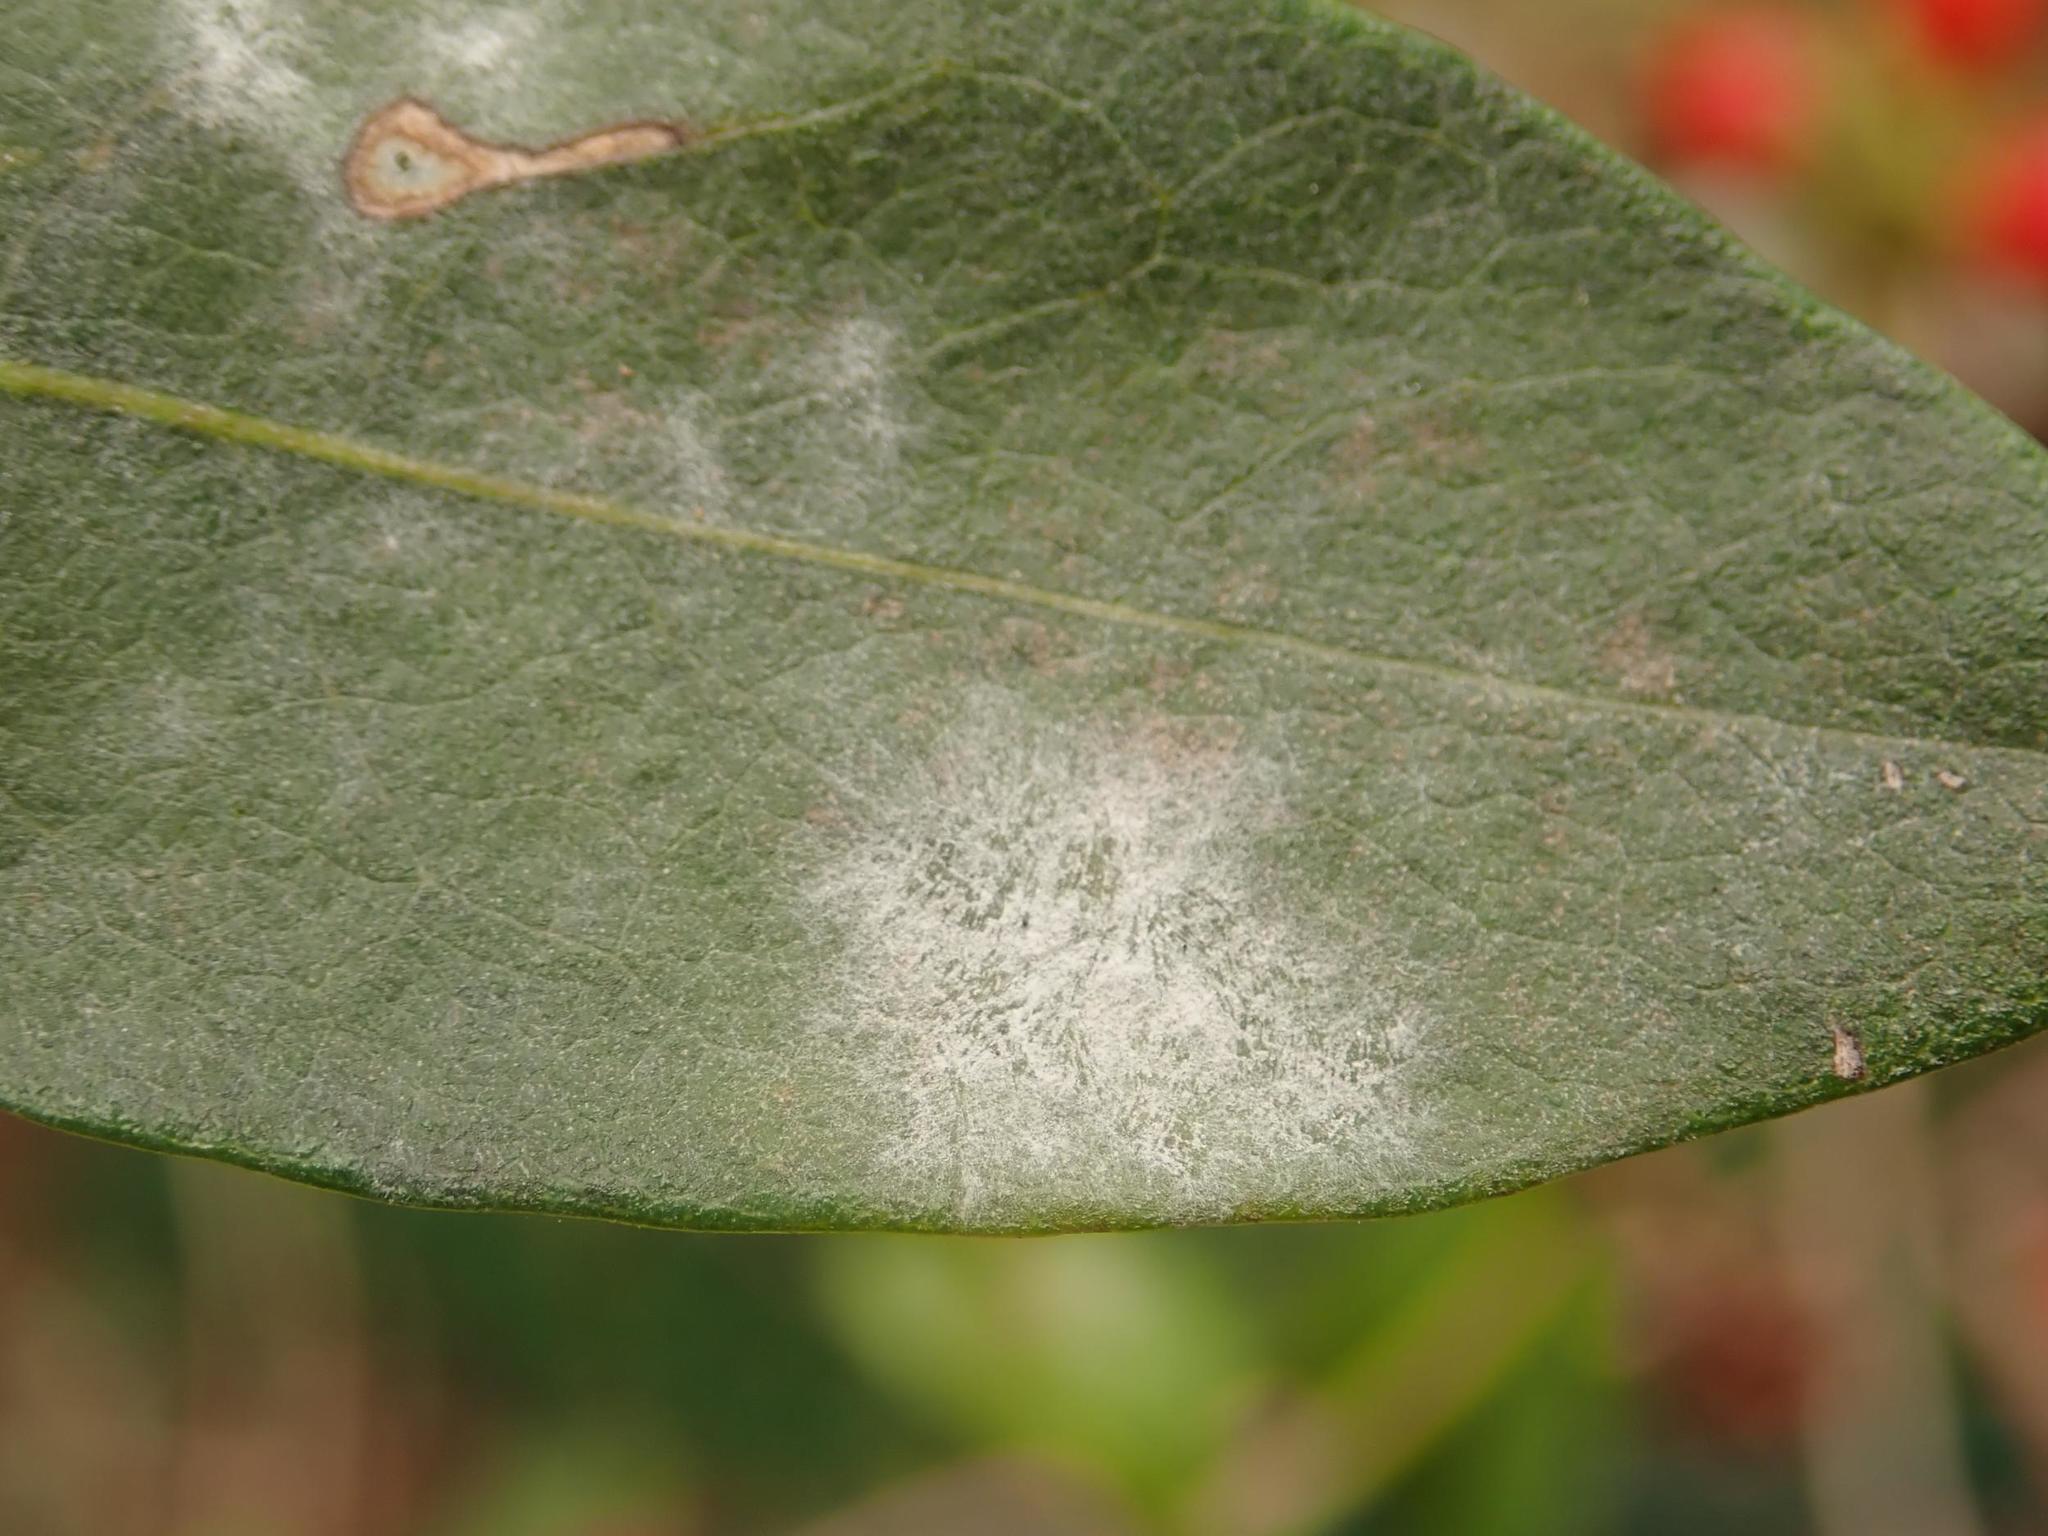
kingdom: Fungi
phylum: Ascomycota
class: Leotiomycetes
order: Helotiales
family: Erysiphaceae
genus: Erysiphe
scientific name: Erysiphe lonicerae
